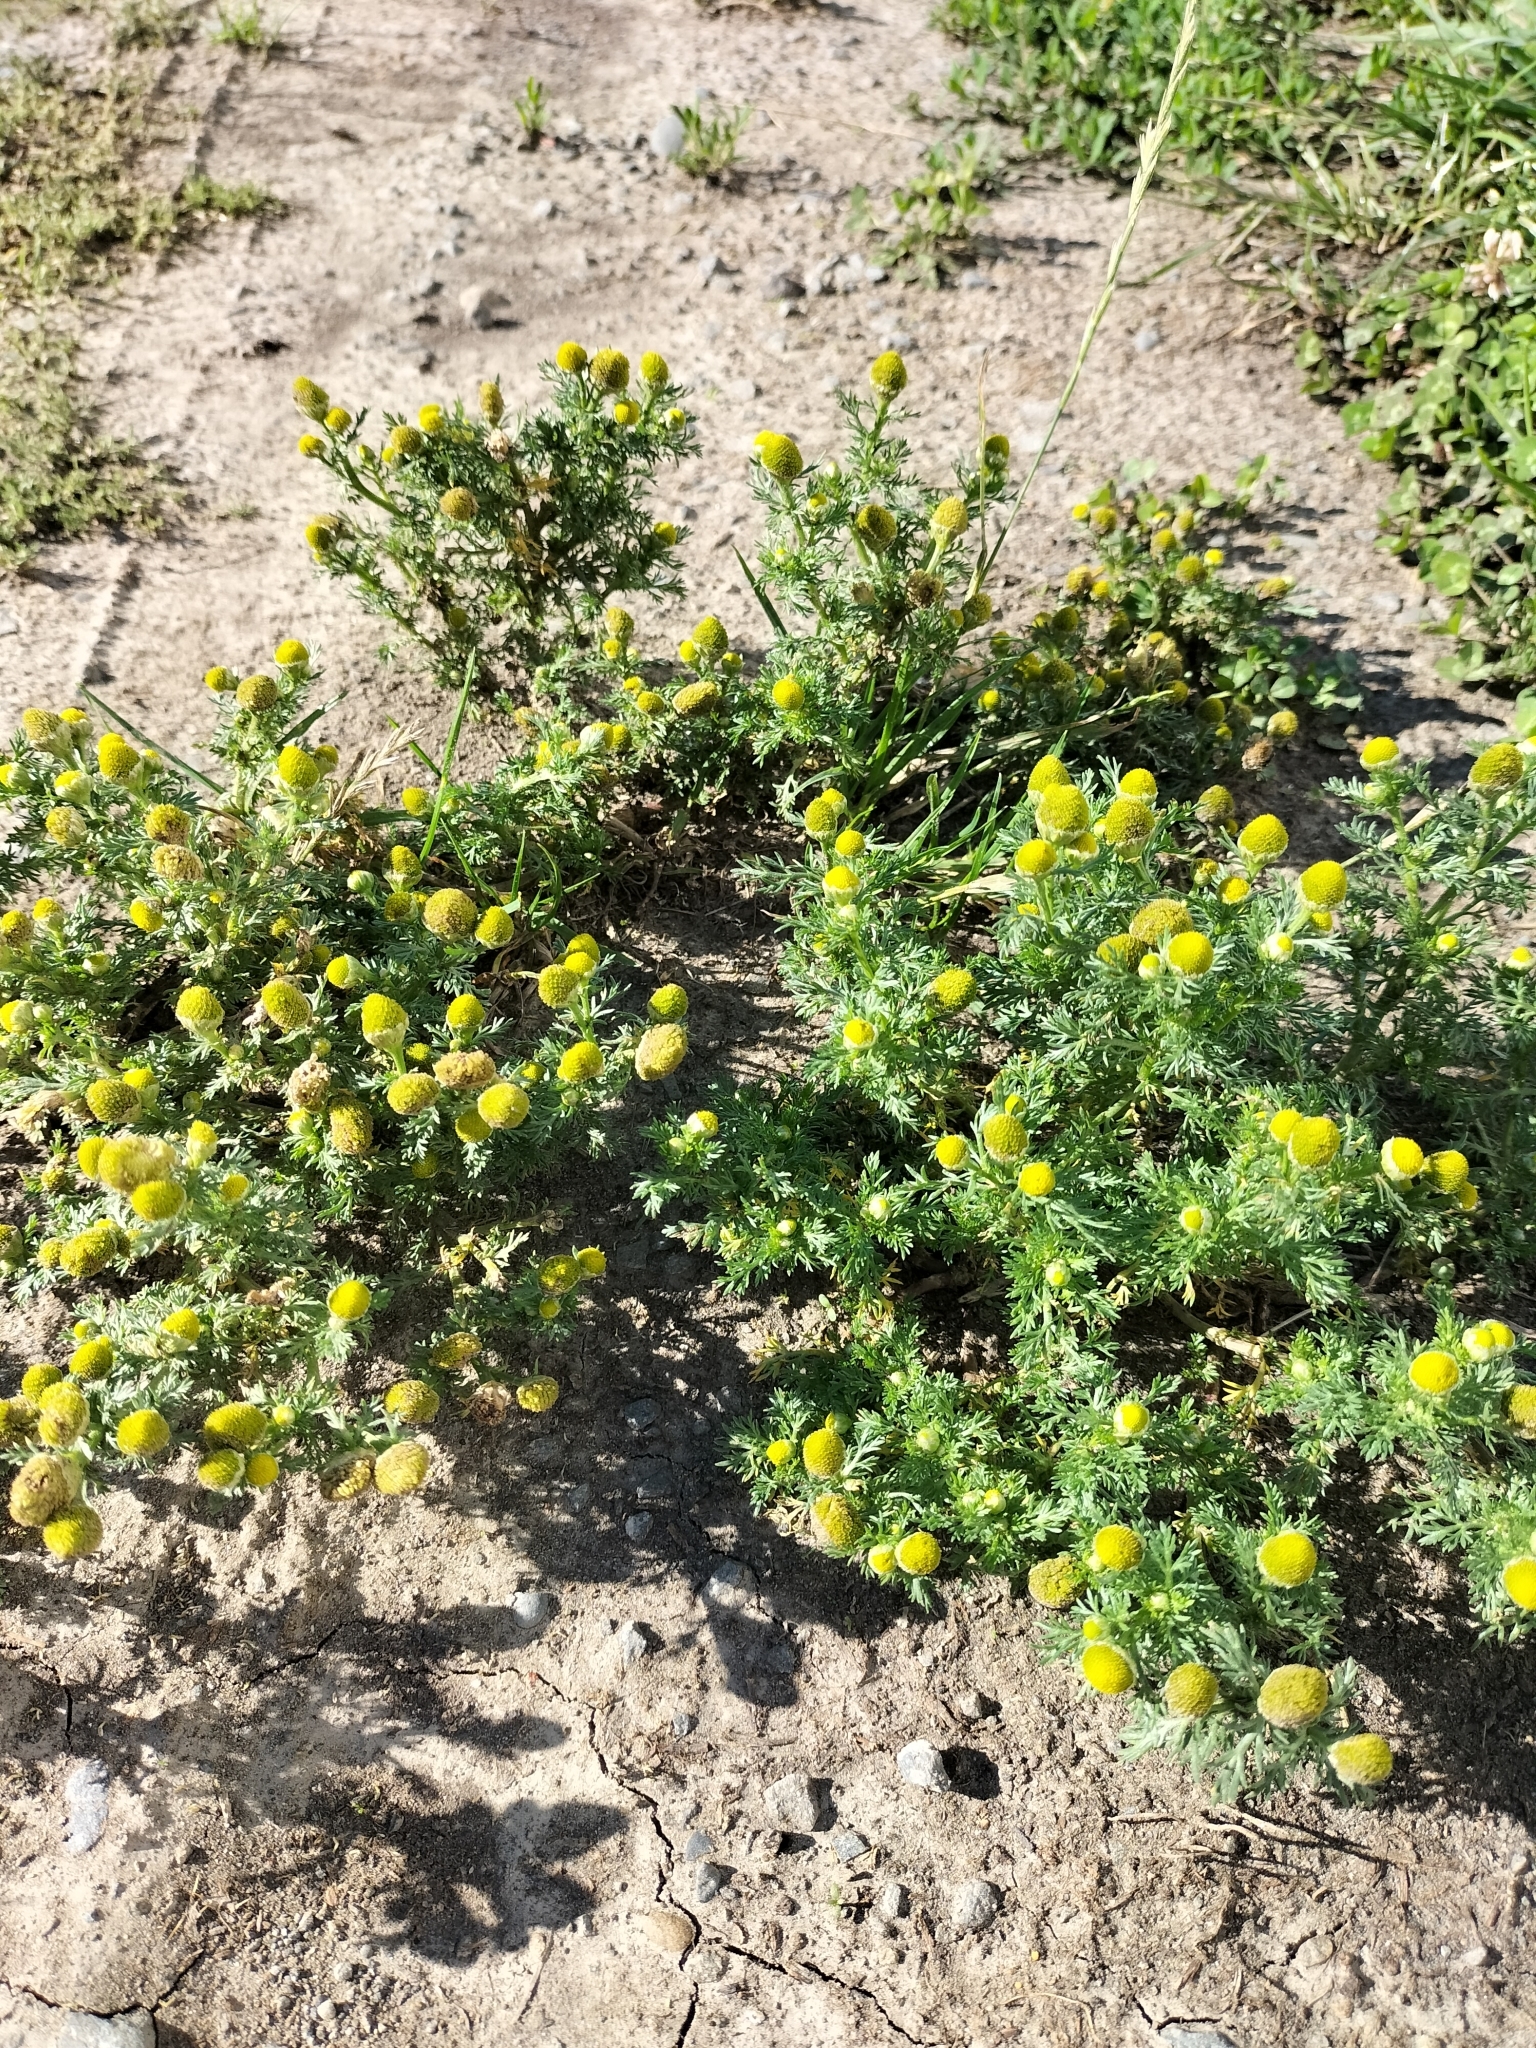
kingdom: Plantae
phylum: Tracheophyta
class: Magnoliopsida
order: Asterales
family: Asteraceae
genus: Matricaria
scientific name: Matricaria discoidea
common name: Disc mayweed
